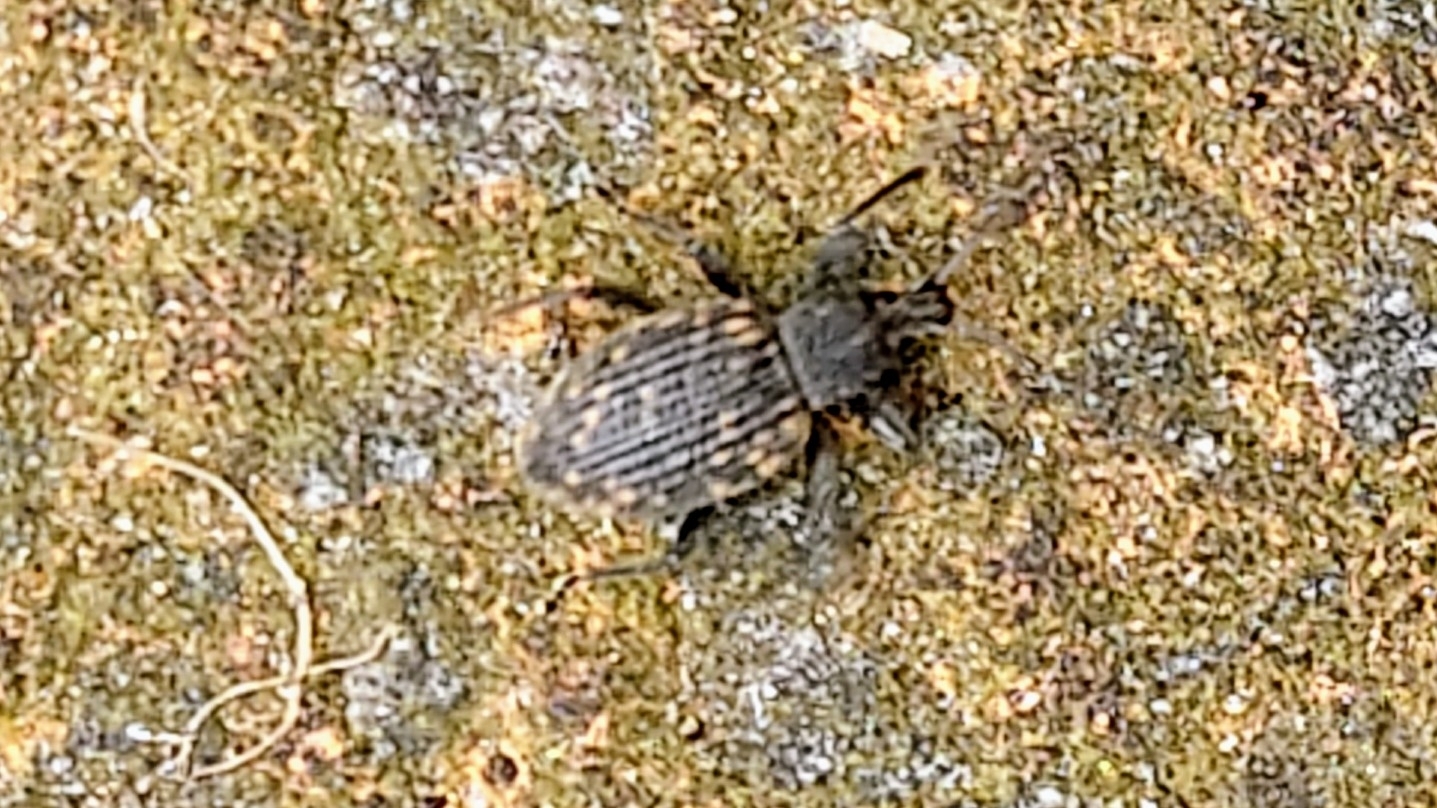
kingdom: Animalia
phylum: Arthropoda
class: Insecta
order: Coleoptera
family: Curculionidae
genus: Otiorhynchus
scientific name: Otiorhynchus sulcatus
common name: Black vine weevil
